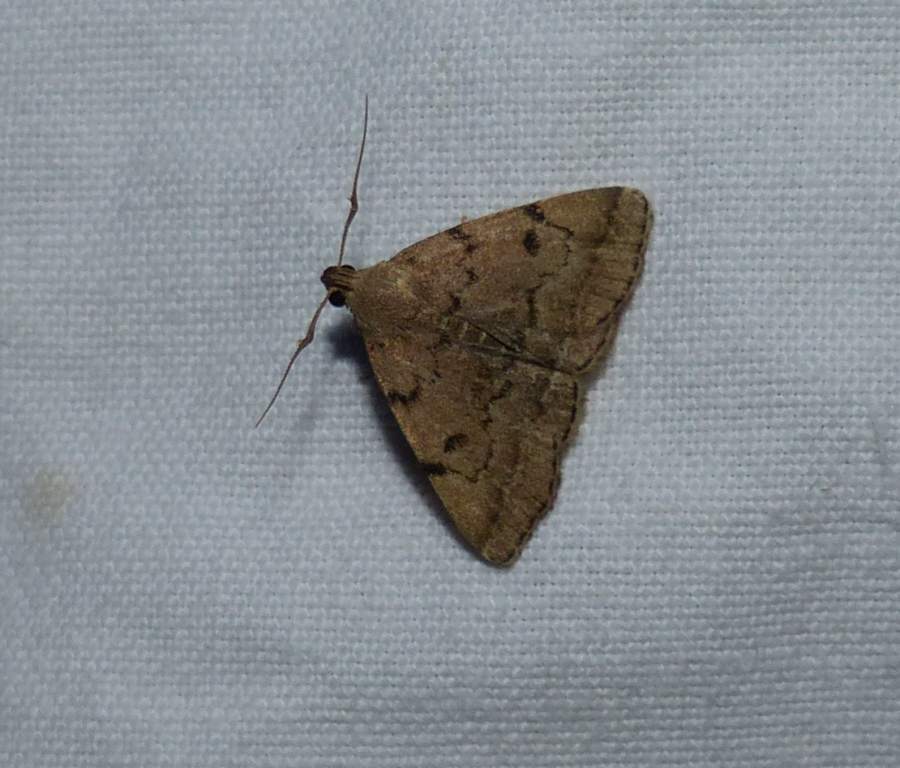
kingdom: Animalia
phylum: Arthropoda
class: Insecta
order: Lepidoptera
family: Erebidae
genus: Zanclognatha
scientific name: Zanclognatha dentata
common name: Toothed fan-foot
